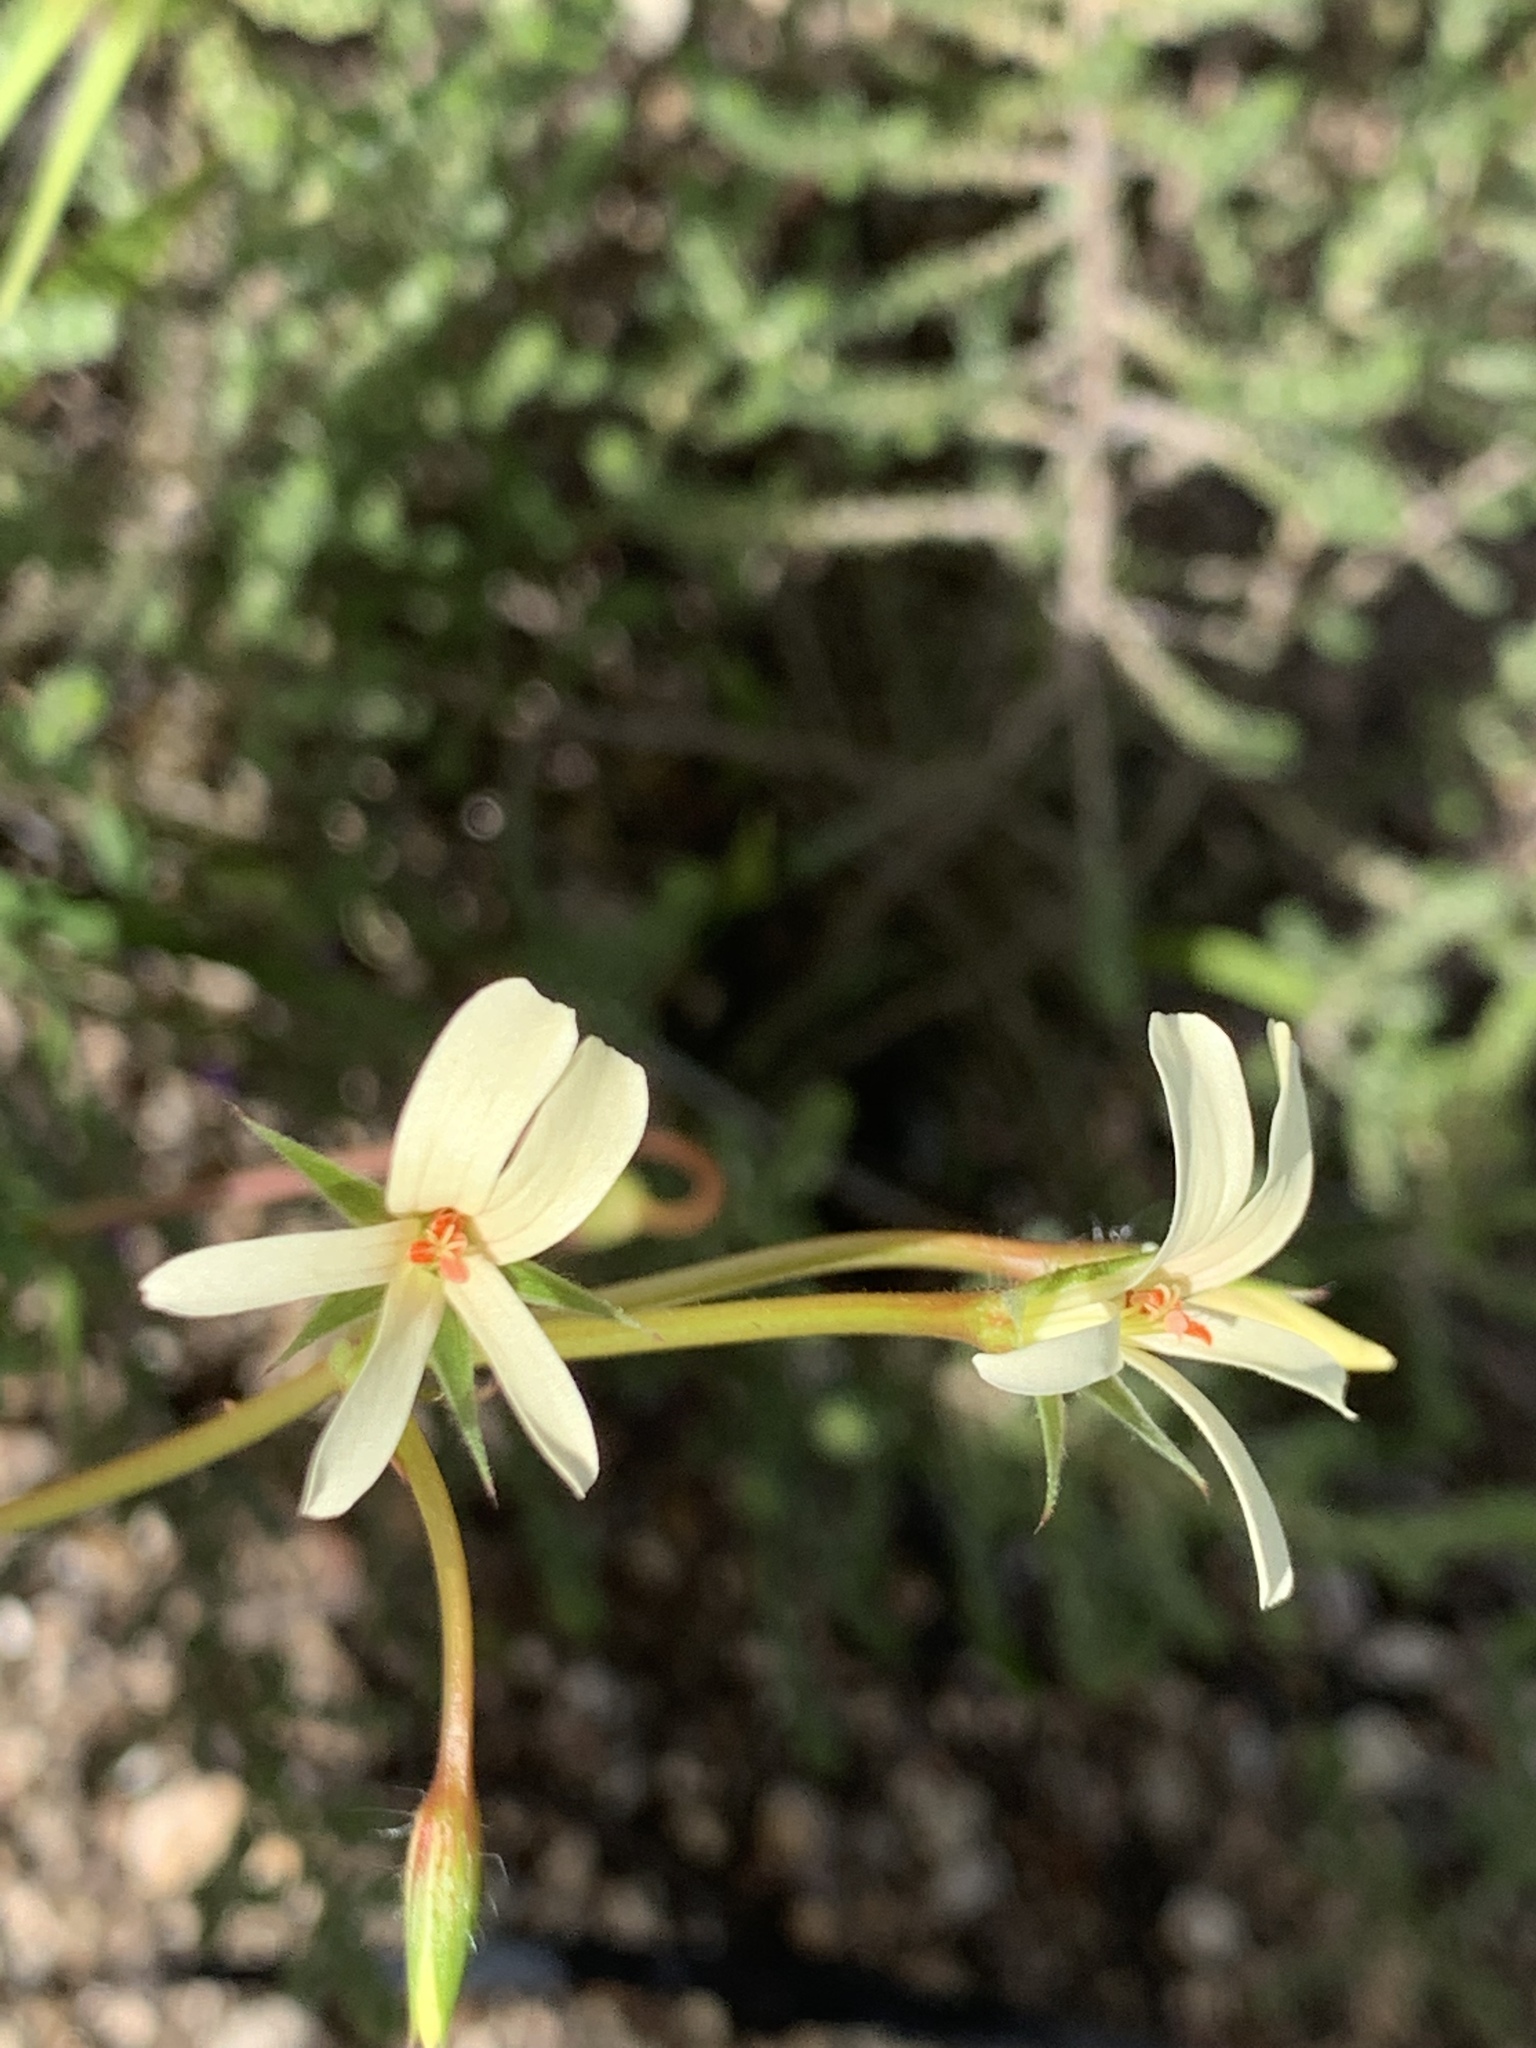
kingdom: Plantae
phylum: Tracheophyta
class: Magnoliopsida
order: Geraniales
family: Geraniaceae
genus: Pelargonium
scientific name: Pelargonium elongatum
